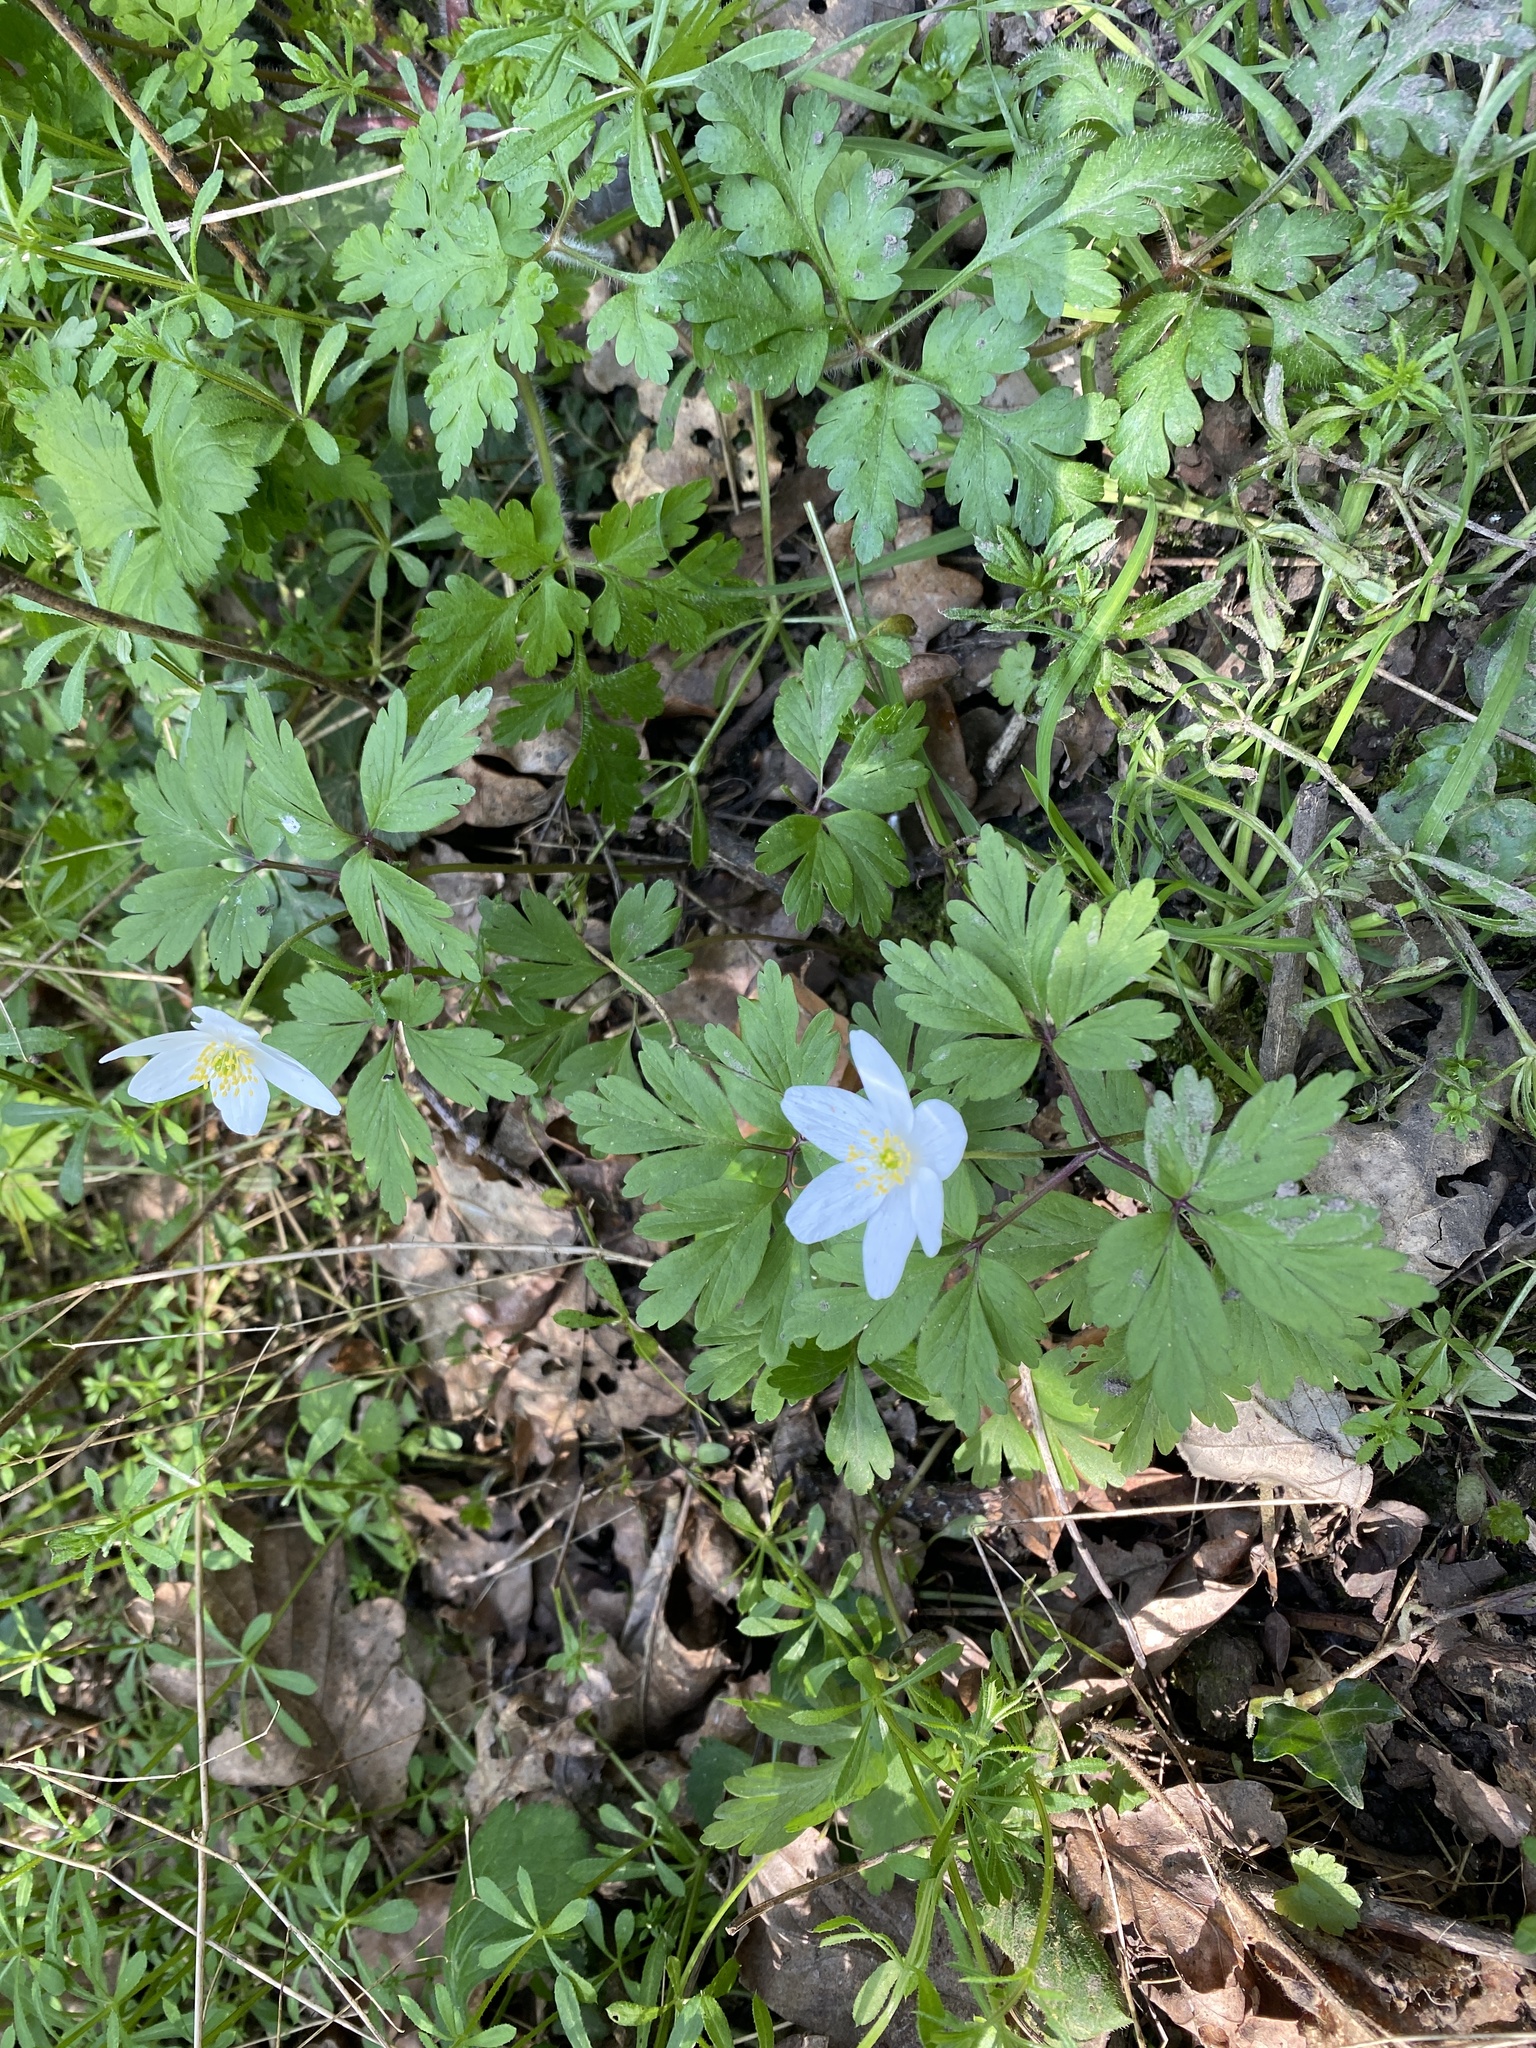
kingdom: Plantae
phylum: Tracheophyta
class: Magnoliopsida
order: Ranunculales
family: Ranunculaceae
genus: Anemone
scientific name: Anemone nemorosa
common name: Wood anemone
